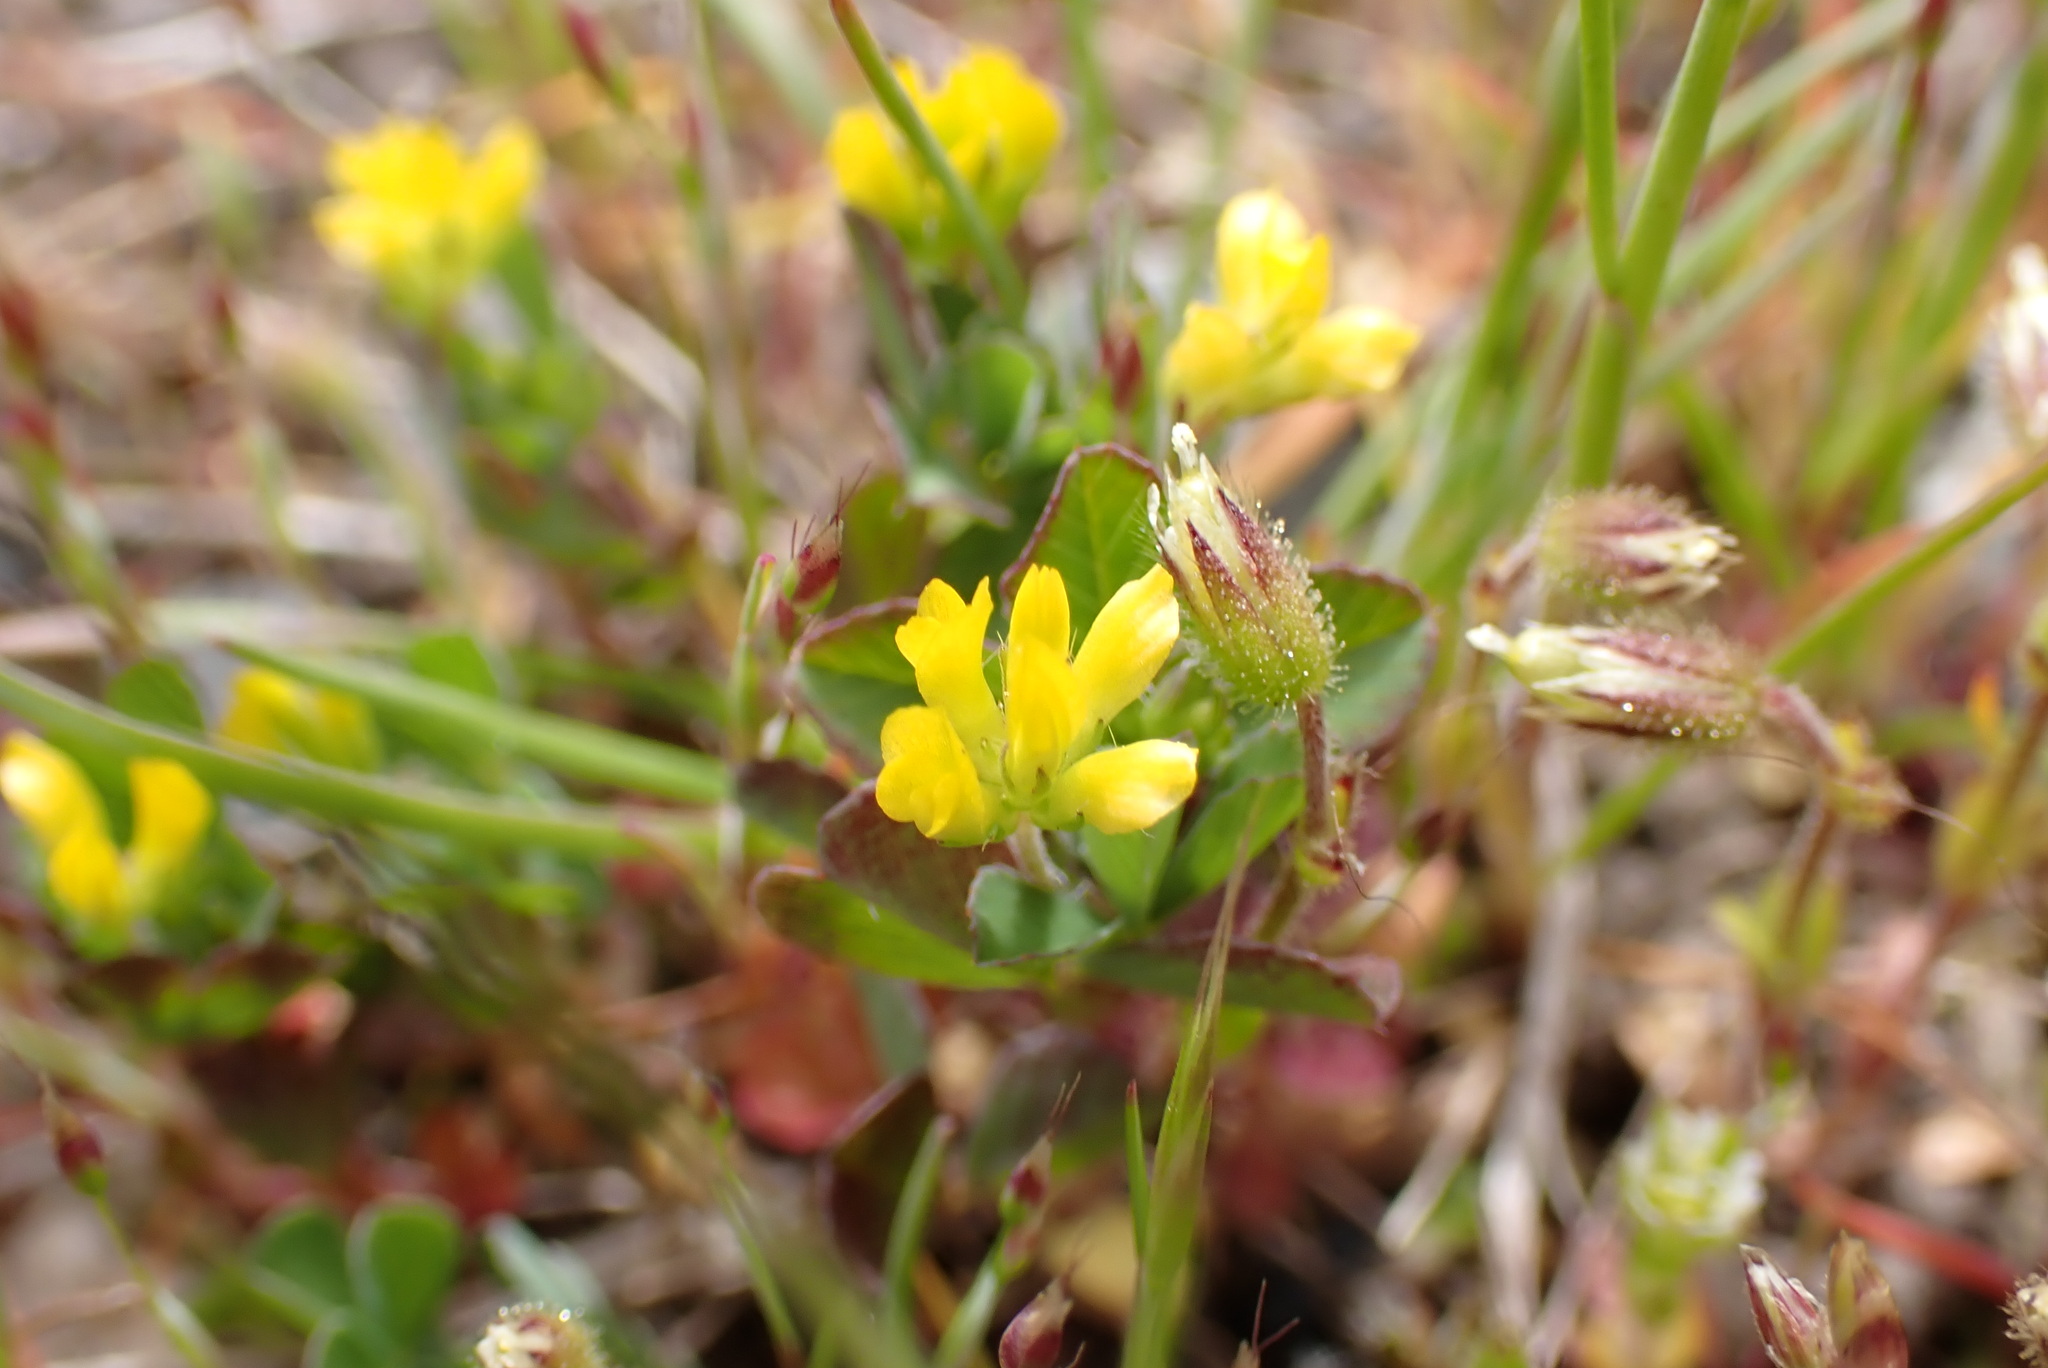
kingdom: Plantae
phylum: Tracheophyta
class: Magnoliopsida
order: Fabales
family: Fabaceae
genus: Trifolium
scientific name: Trifolium dubium
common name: Suckling clover
